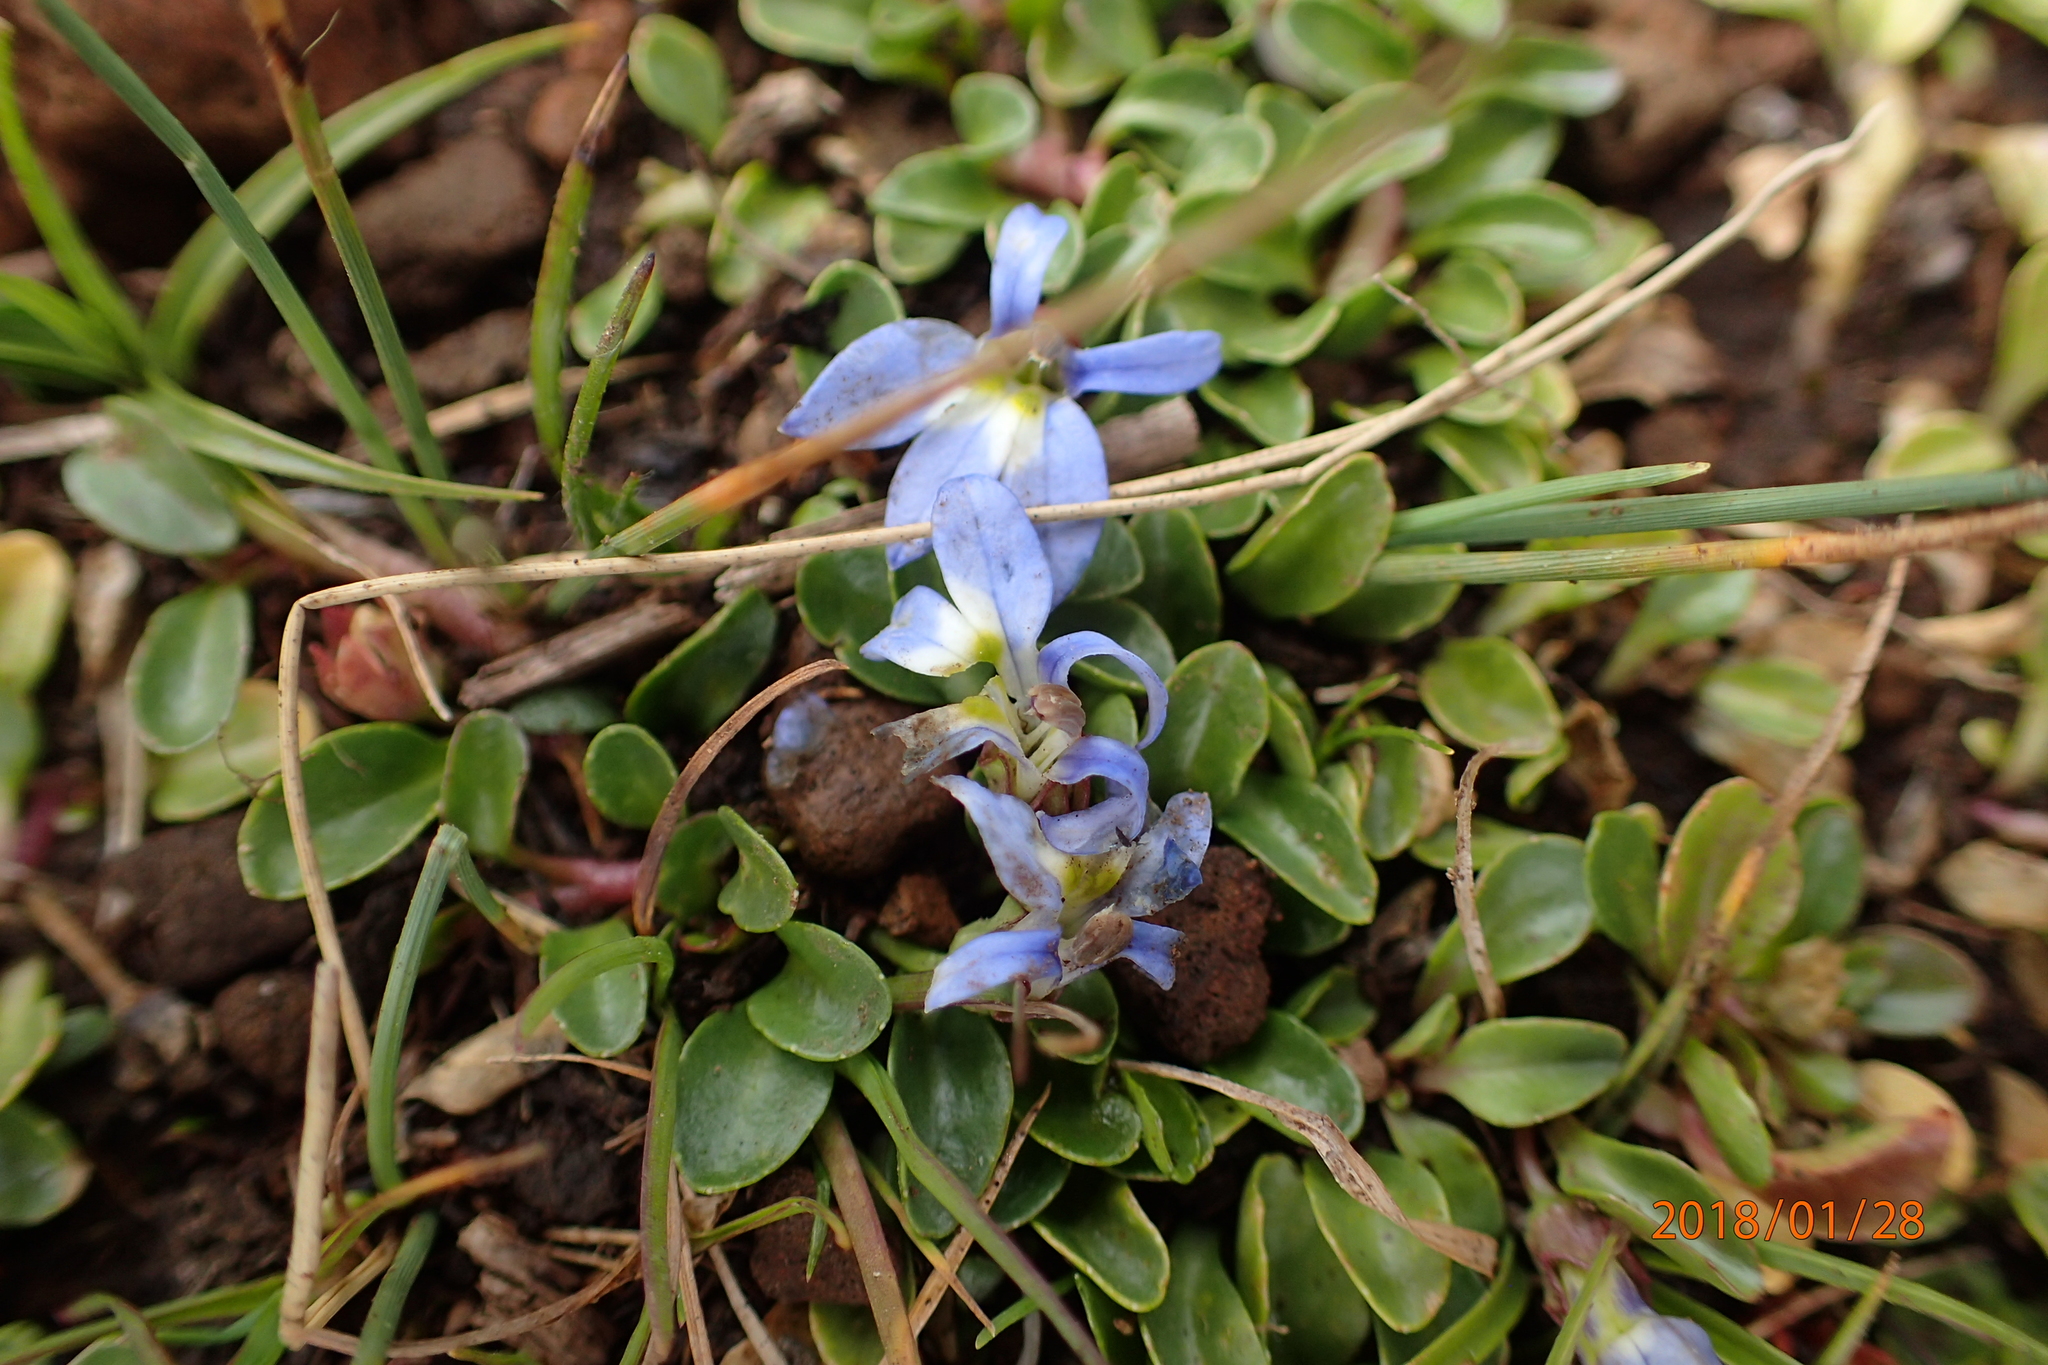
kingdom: Plantae
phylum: Tracheophyta
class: Magnoliopsida
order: Asterales
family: Campanulaceae
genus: Lobelia
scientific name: Lobelia galpinii
